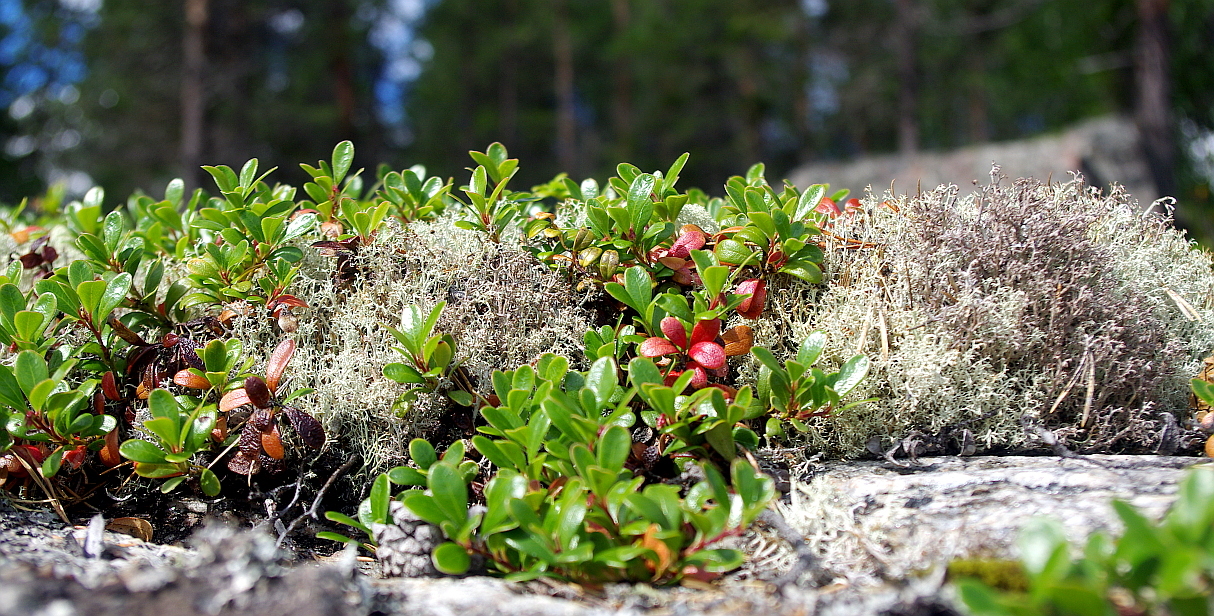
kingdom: Plantae
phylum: Tracheophyta
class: Magnoliopsida
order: Ericales
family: Ericaceae
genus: Arctostaphylos
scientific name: Arctostaphylos uva-ursi
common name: Bearberry
